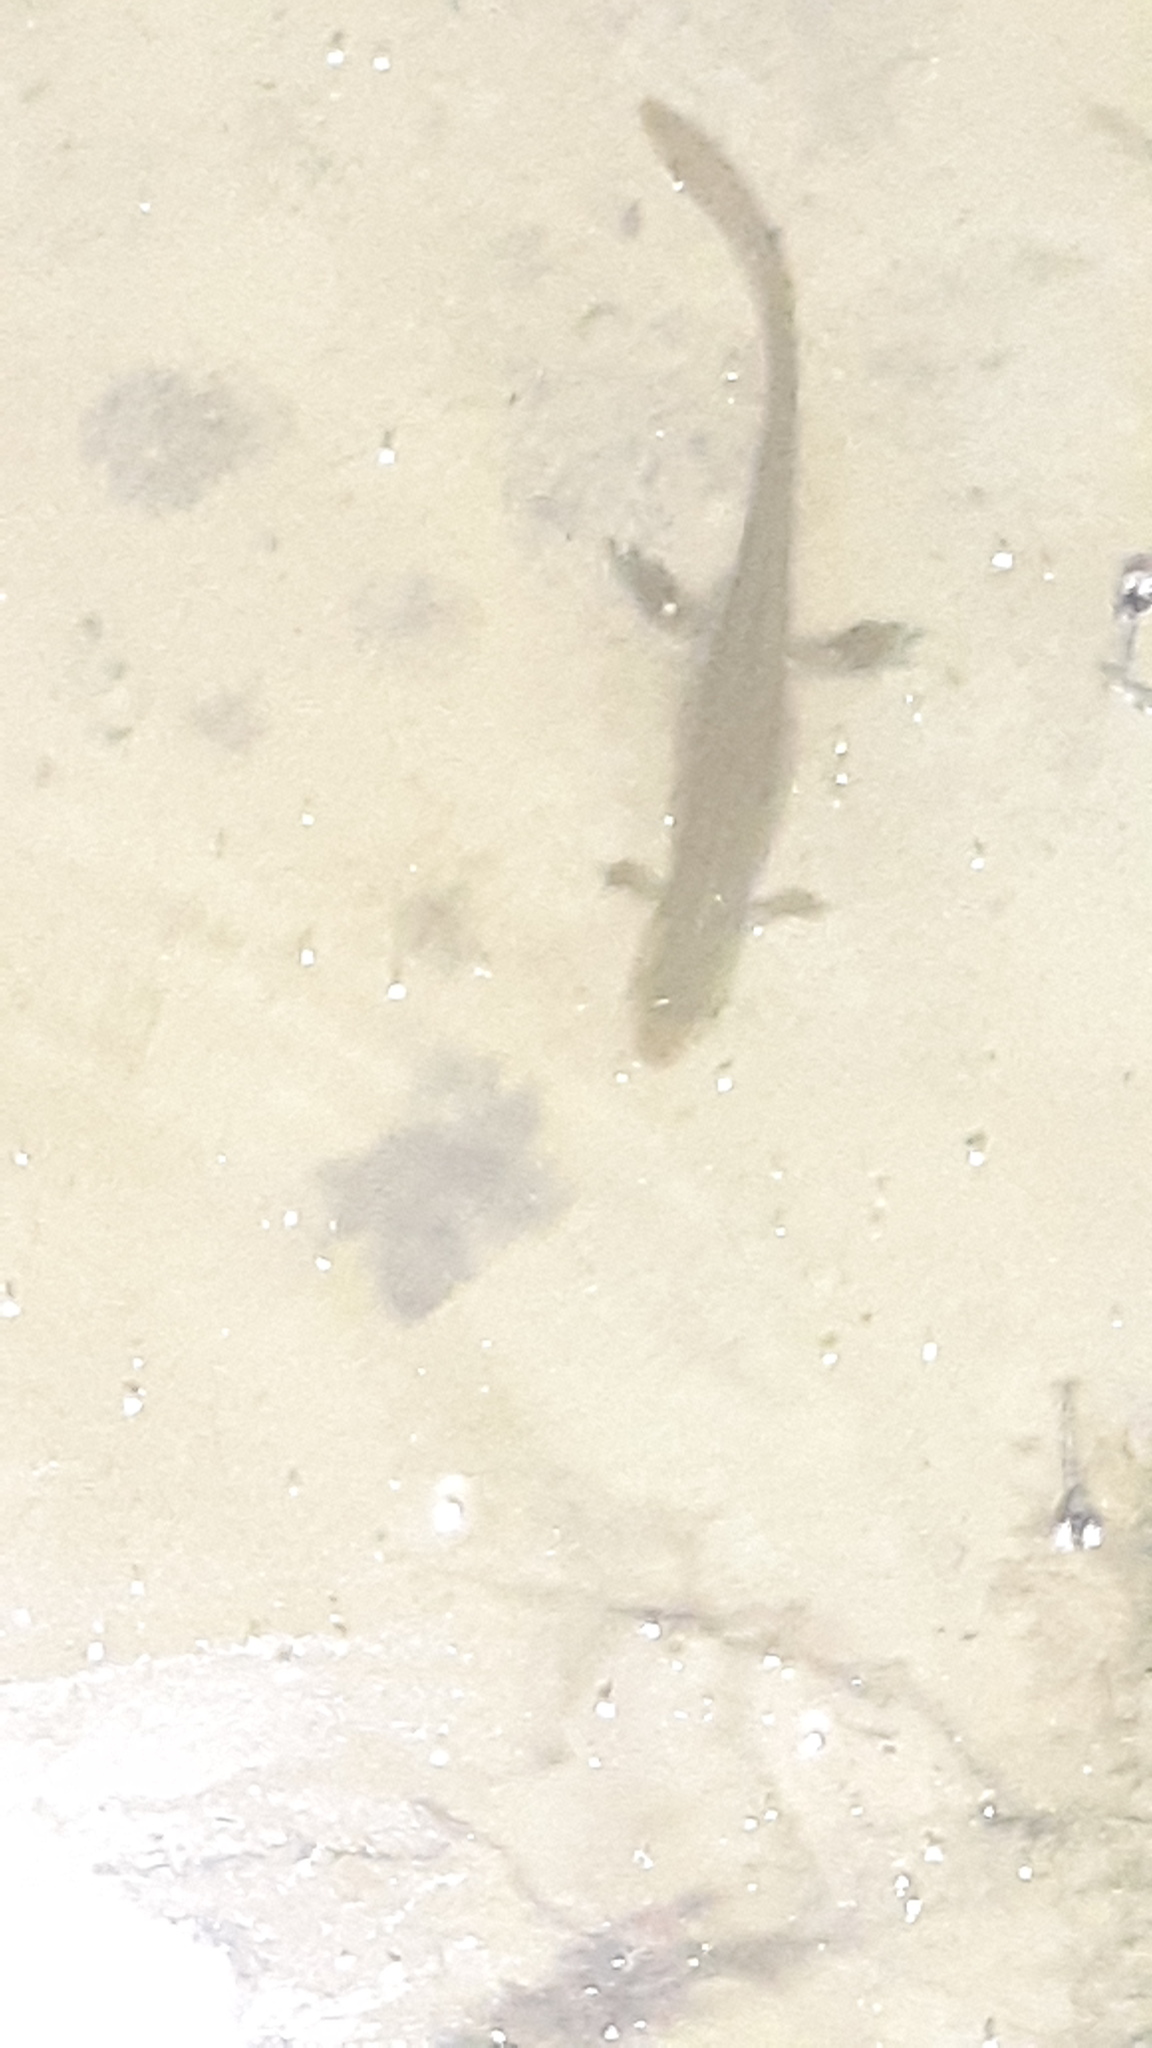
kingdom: Animalia
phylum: Chordata
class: Amphibia
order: Caudata
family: Salamandridae
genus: Notophthalmus
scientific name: Notophthalmus viridescens
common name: Eastern newt
